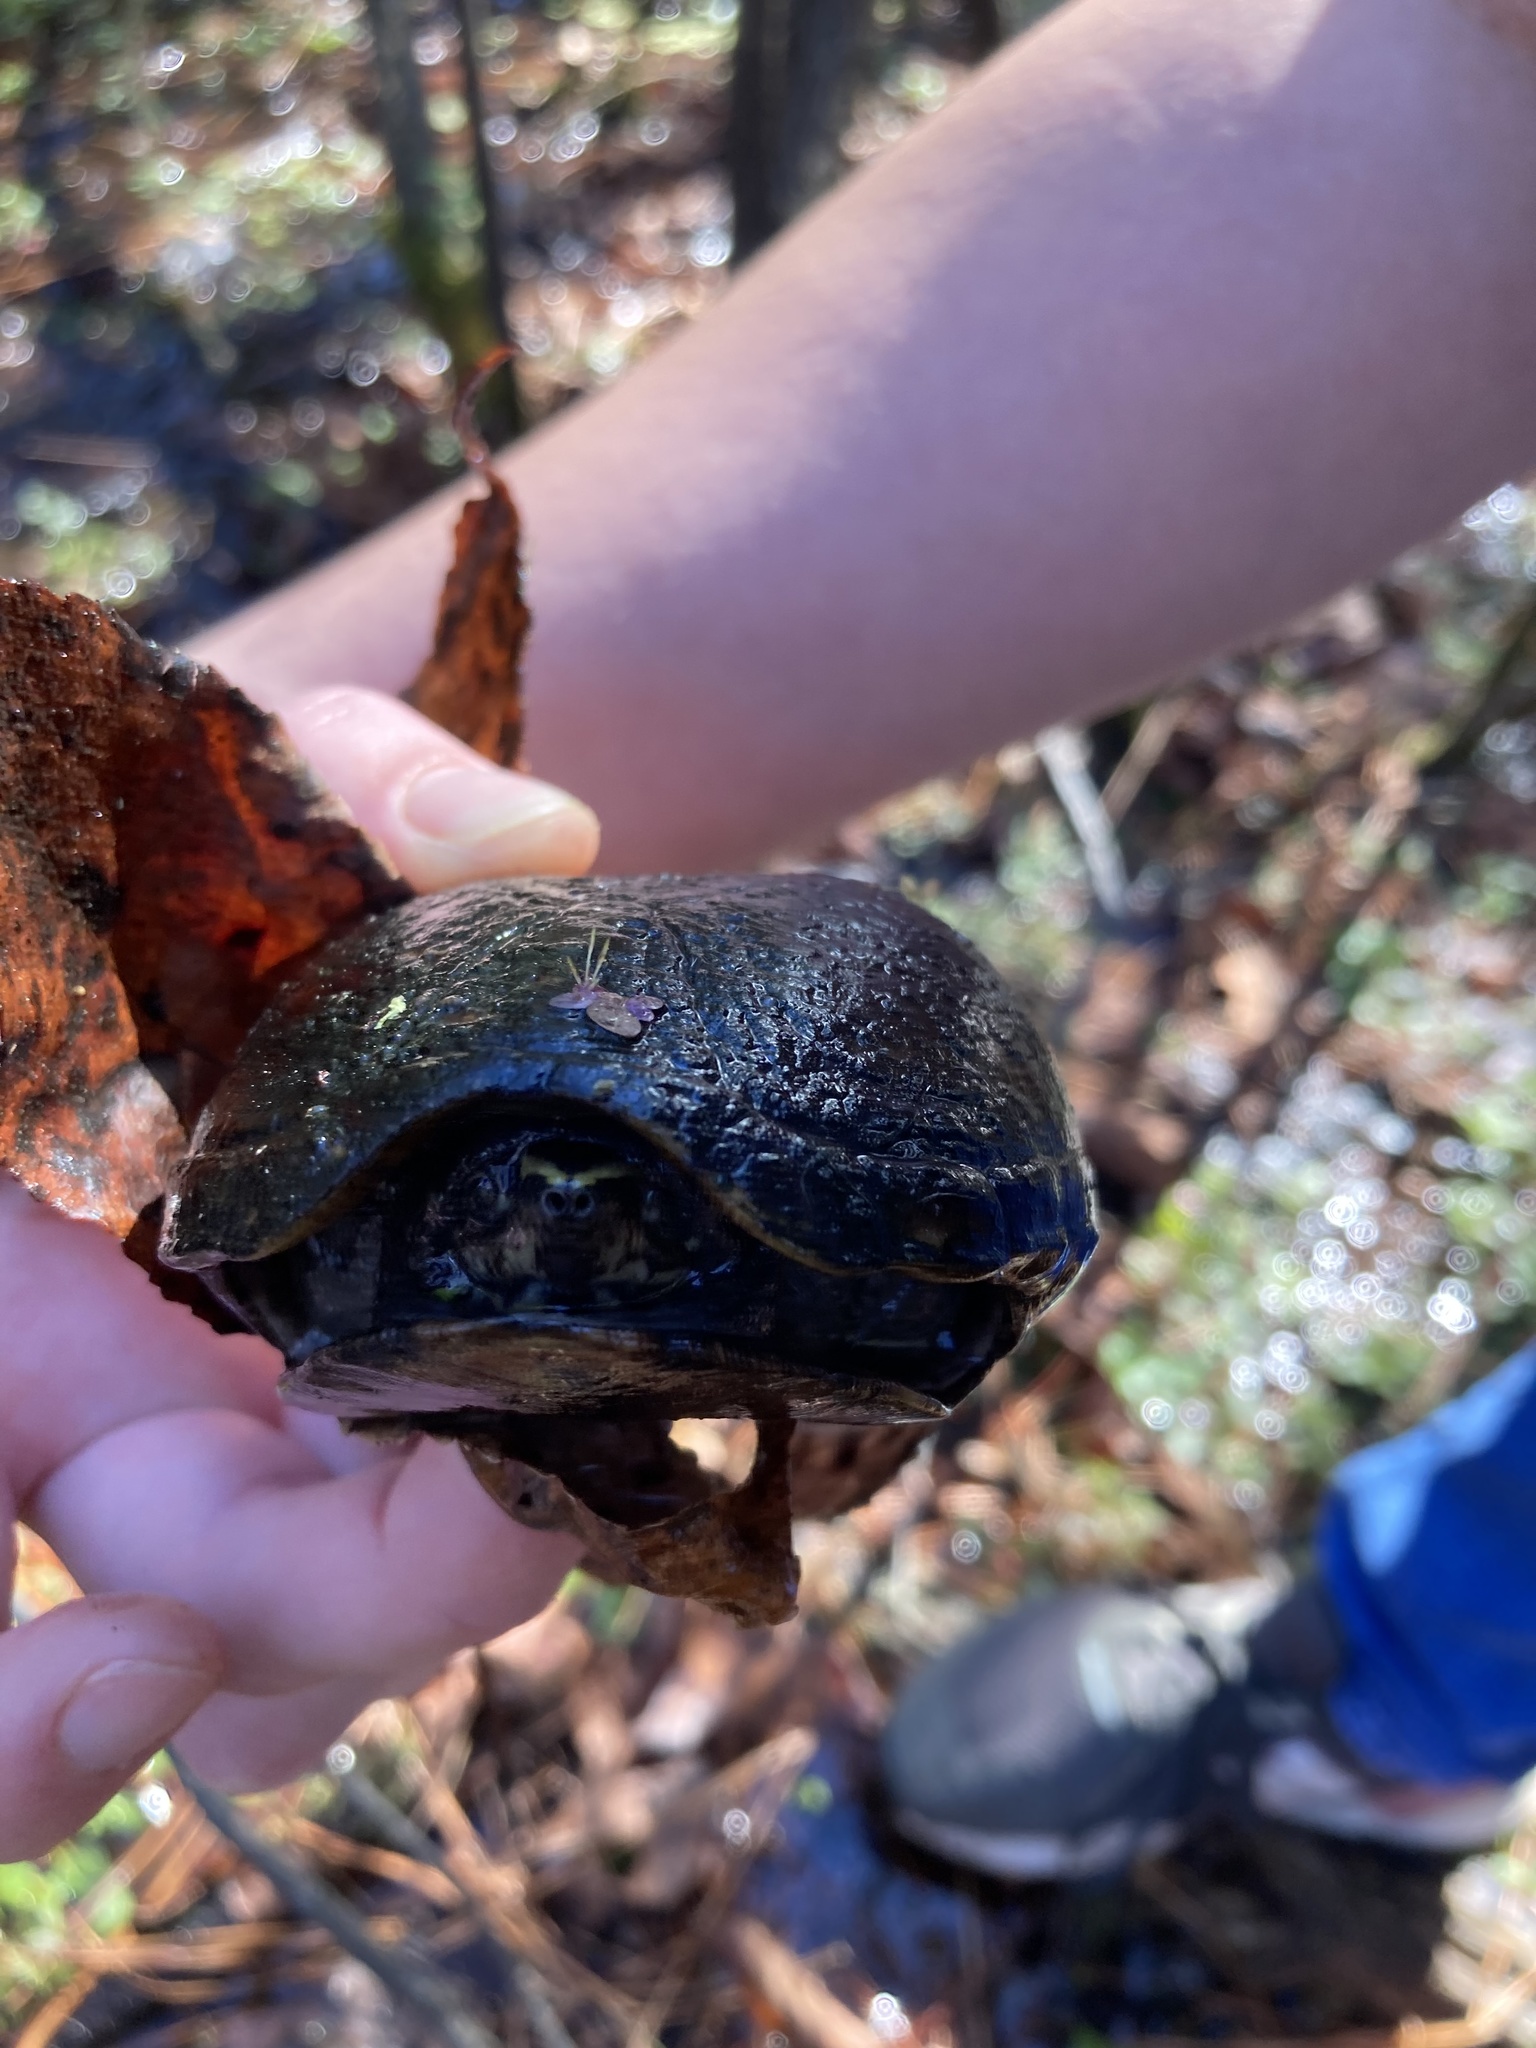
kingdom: Animalia
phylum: Chordata
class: Testudines
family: Kinosternidae
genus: Kinosternon
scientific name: Kinosternon baurii
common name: Striped mud turtle
